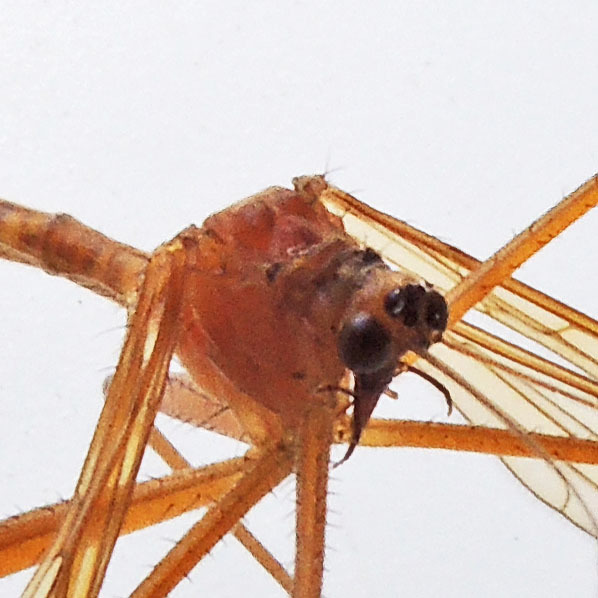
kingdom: Animalia
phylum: Arthropoda
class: Insecta
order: Mecoptera
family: Bittacidae
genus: Bittacus
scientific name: Bittacus stigmaterus
